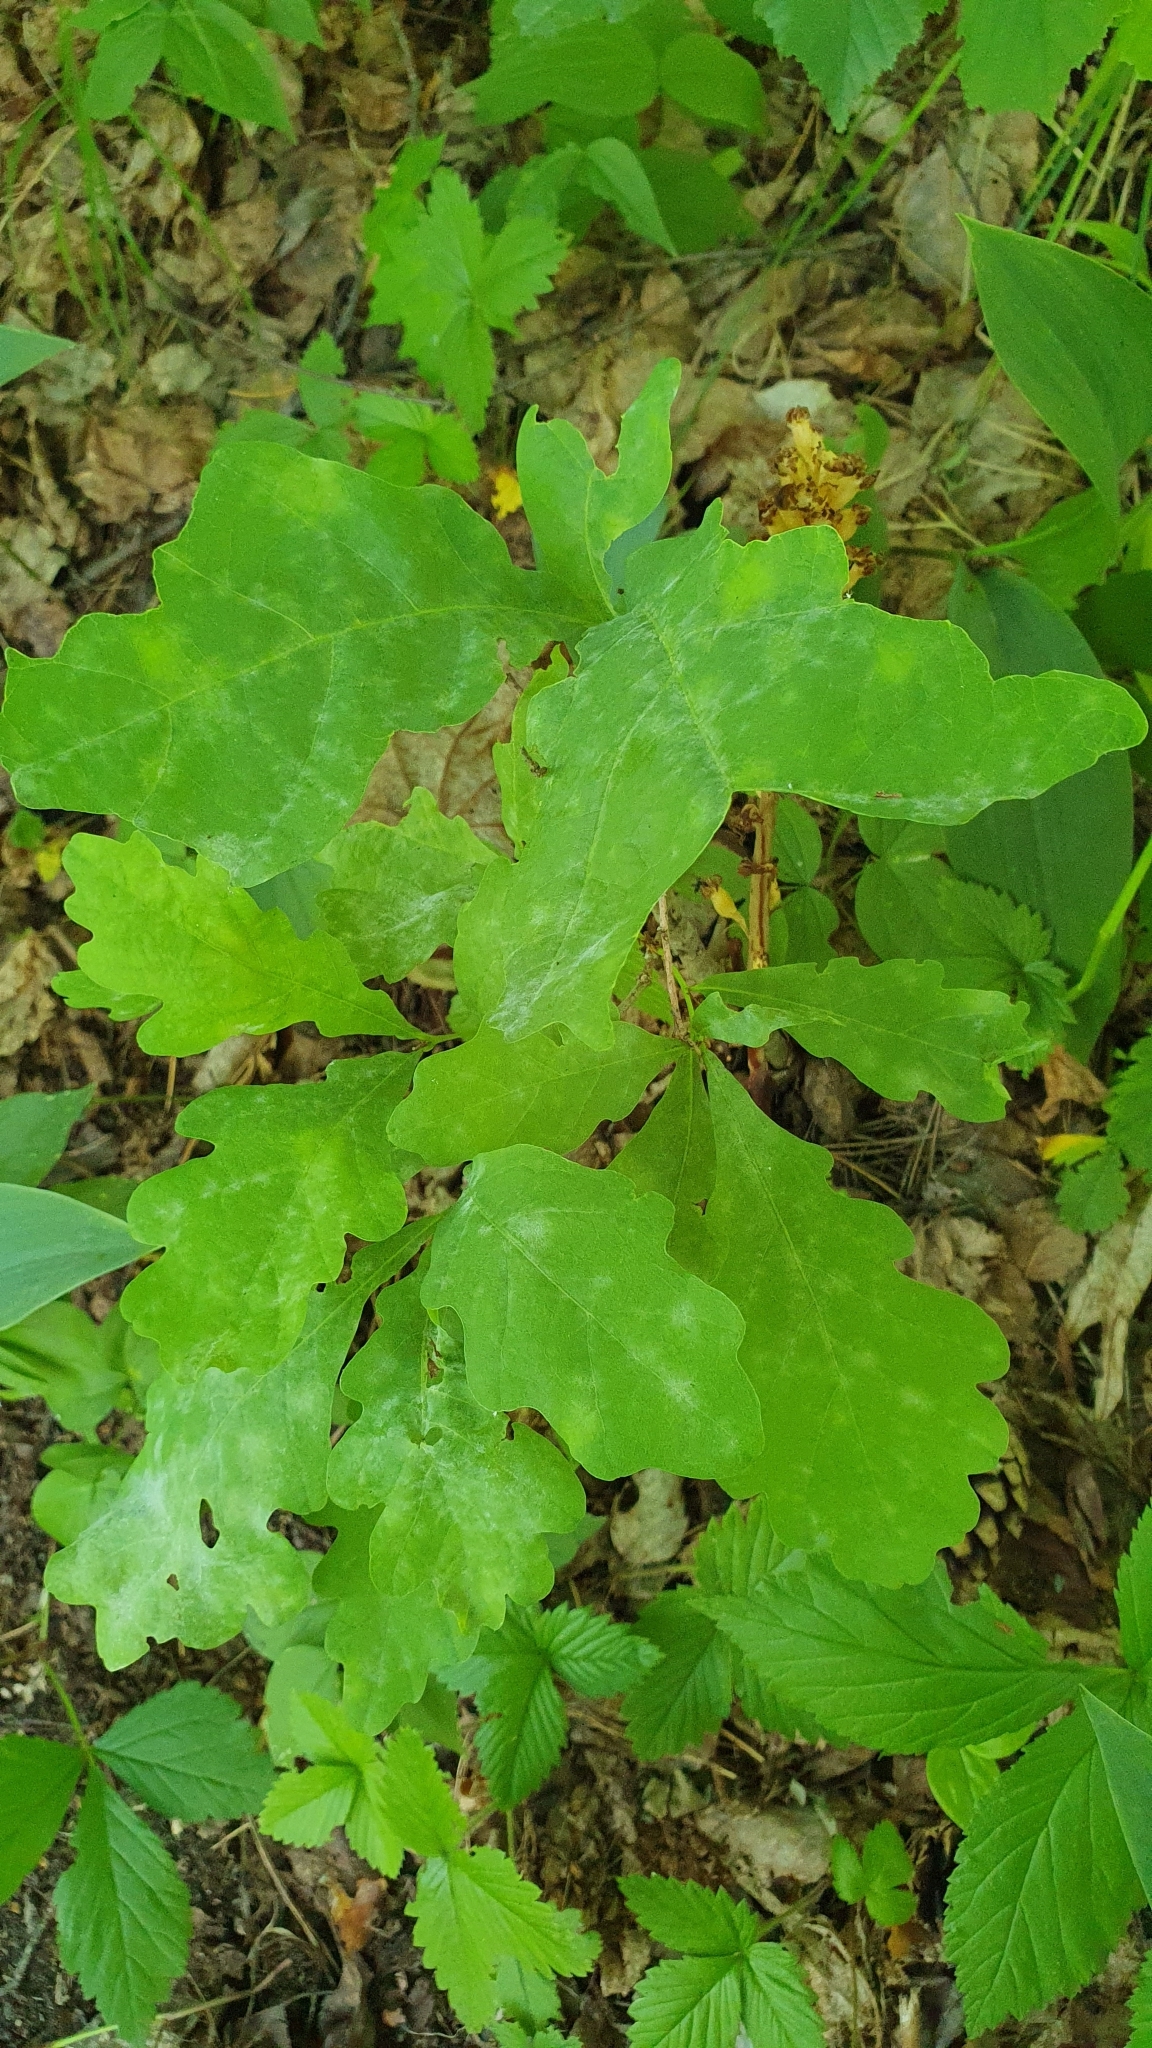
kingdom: Plantae
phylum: Tracheophyta
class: Magnoliopsida
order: Fagales
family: Fagaceae
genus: Quercus
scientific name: Quercus robur
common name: Pedunculate oak
